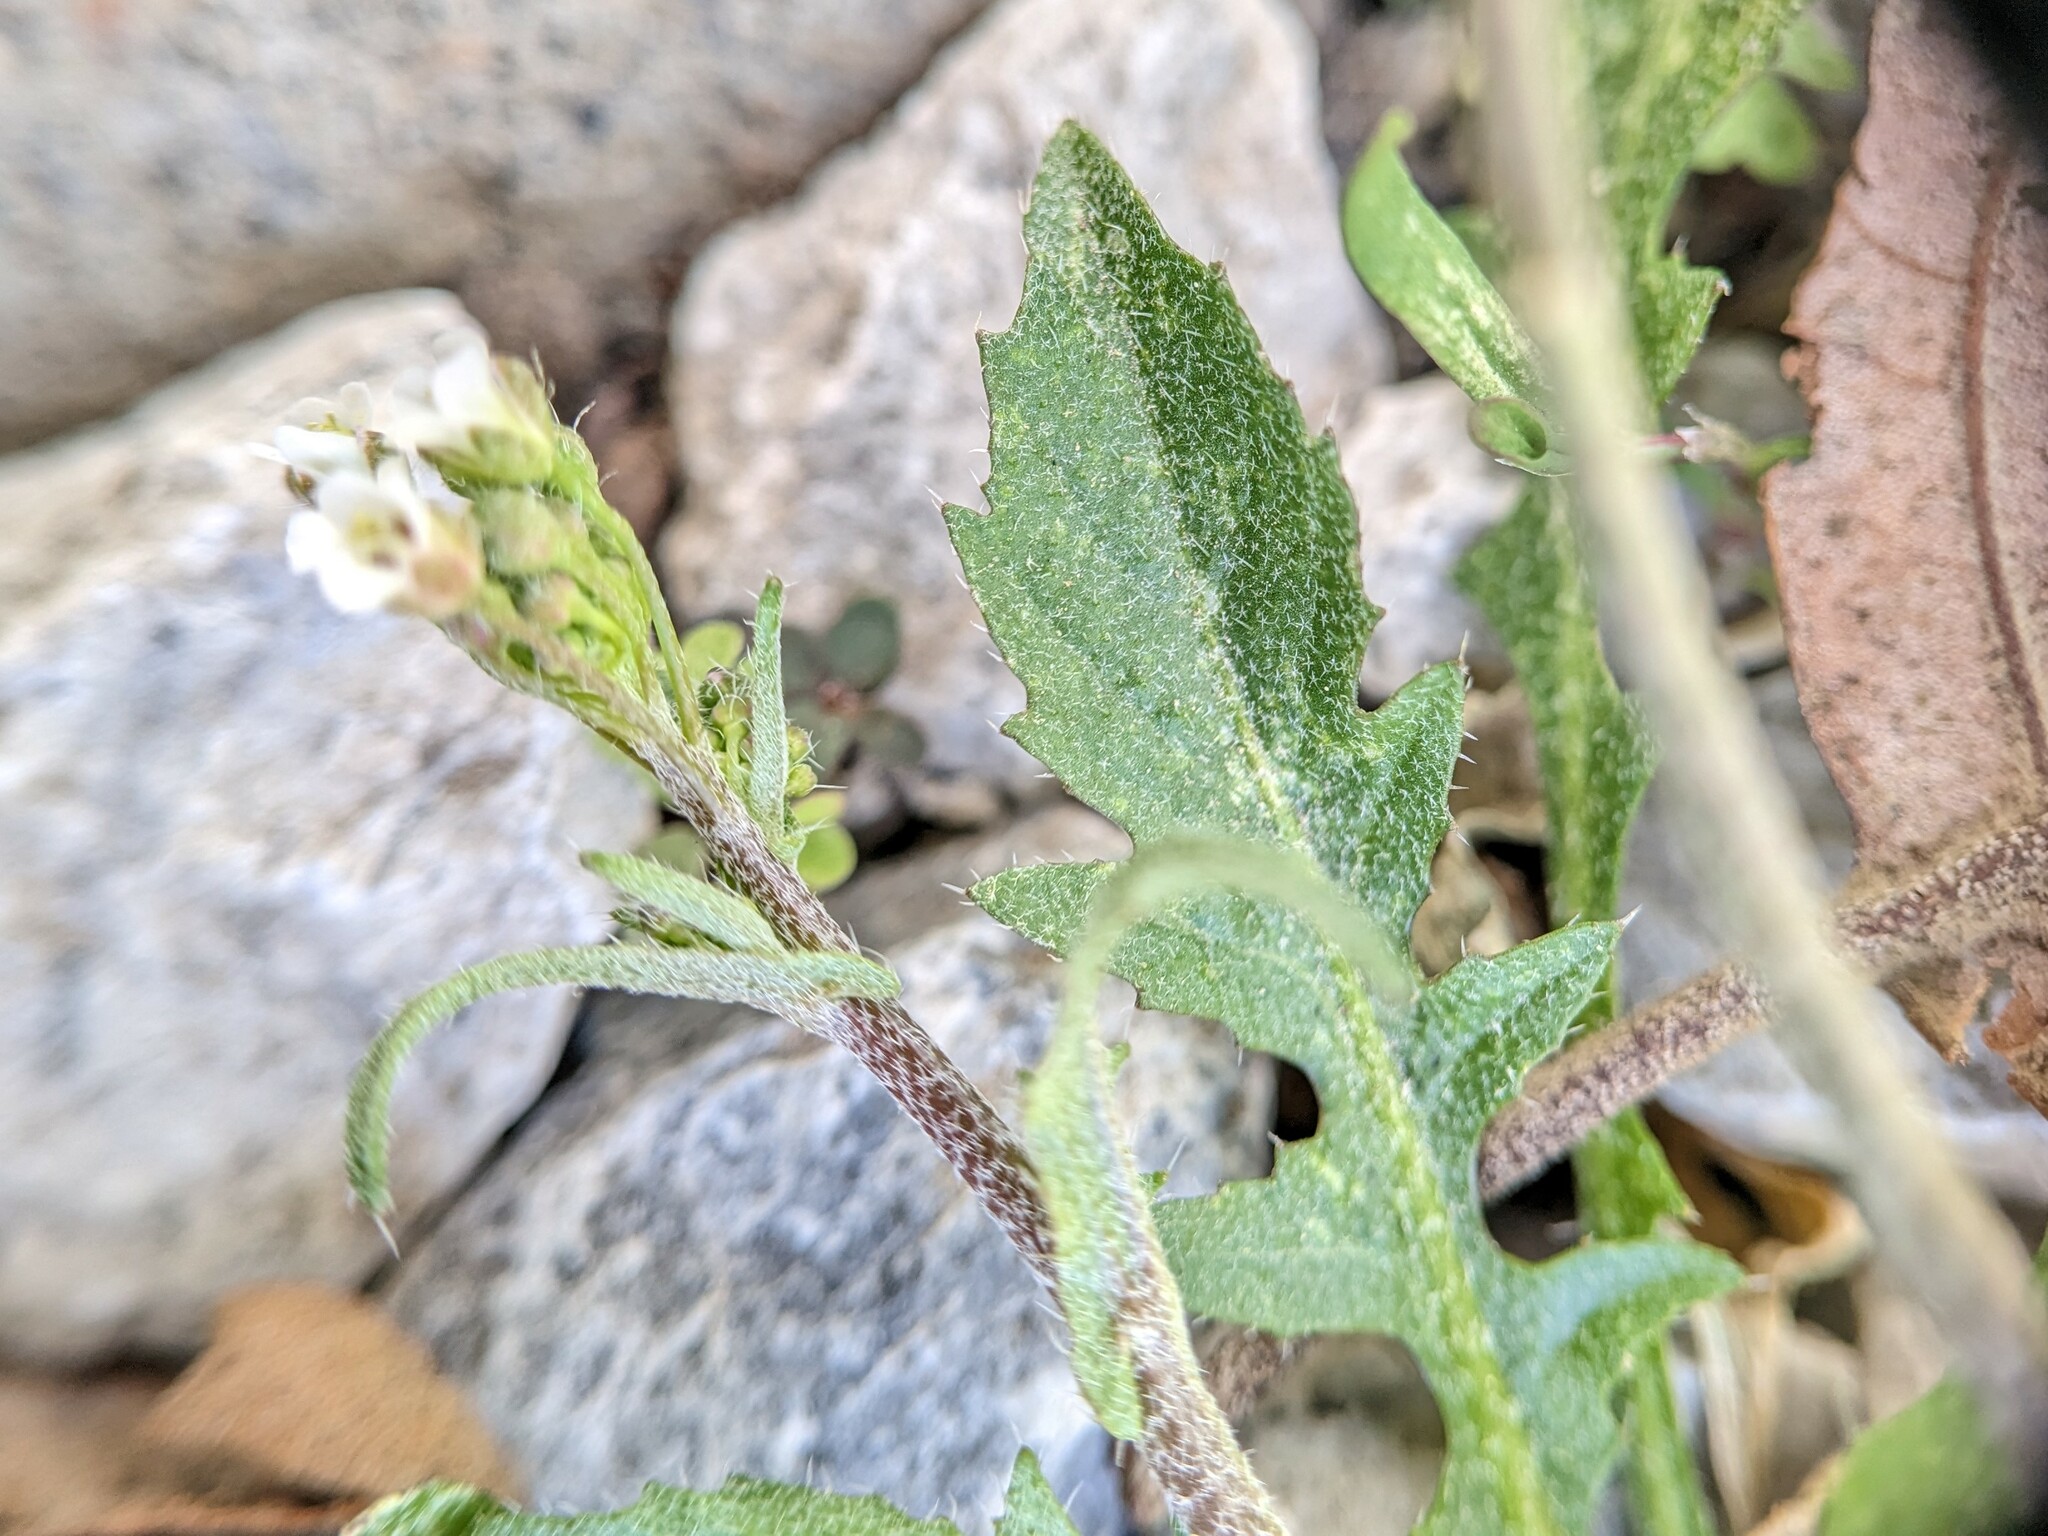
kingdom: Plantae
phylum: Tracheophyta
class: Magnoliopsida
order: Brassicales
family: Brassicaceae
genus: Capsella
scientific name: Capsella bursa-pastoris
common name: Shepherd's purse
